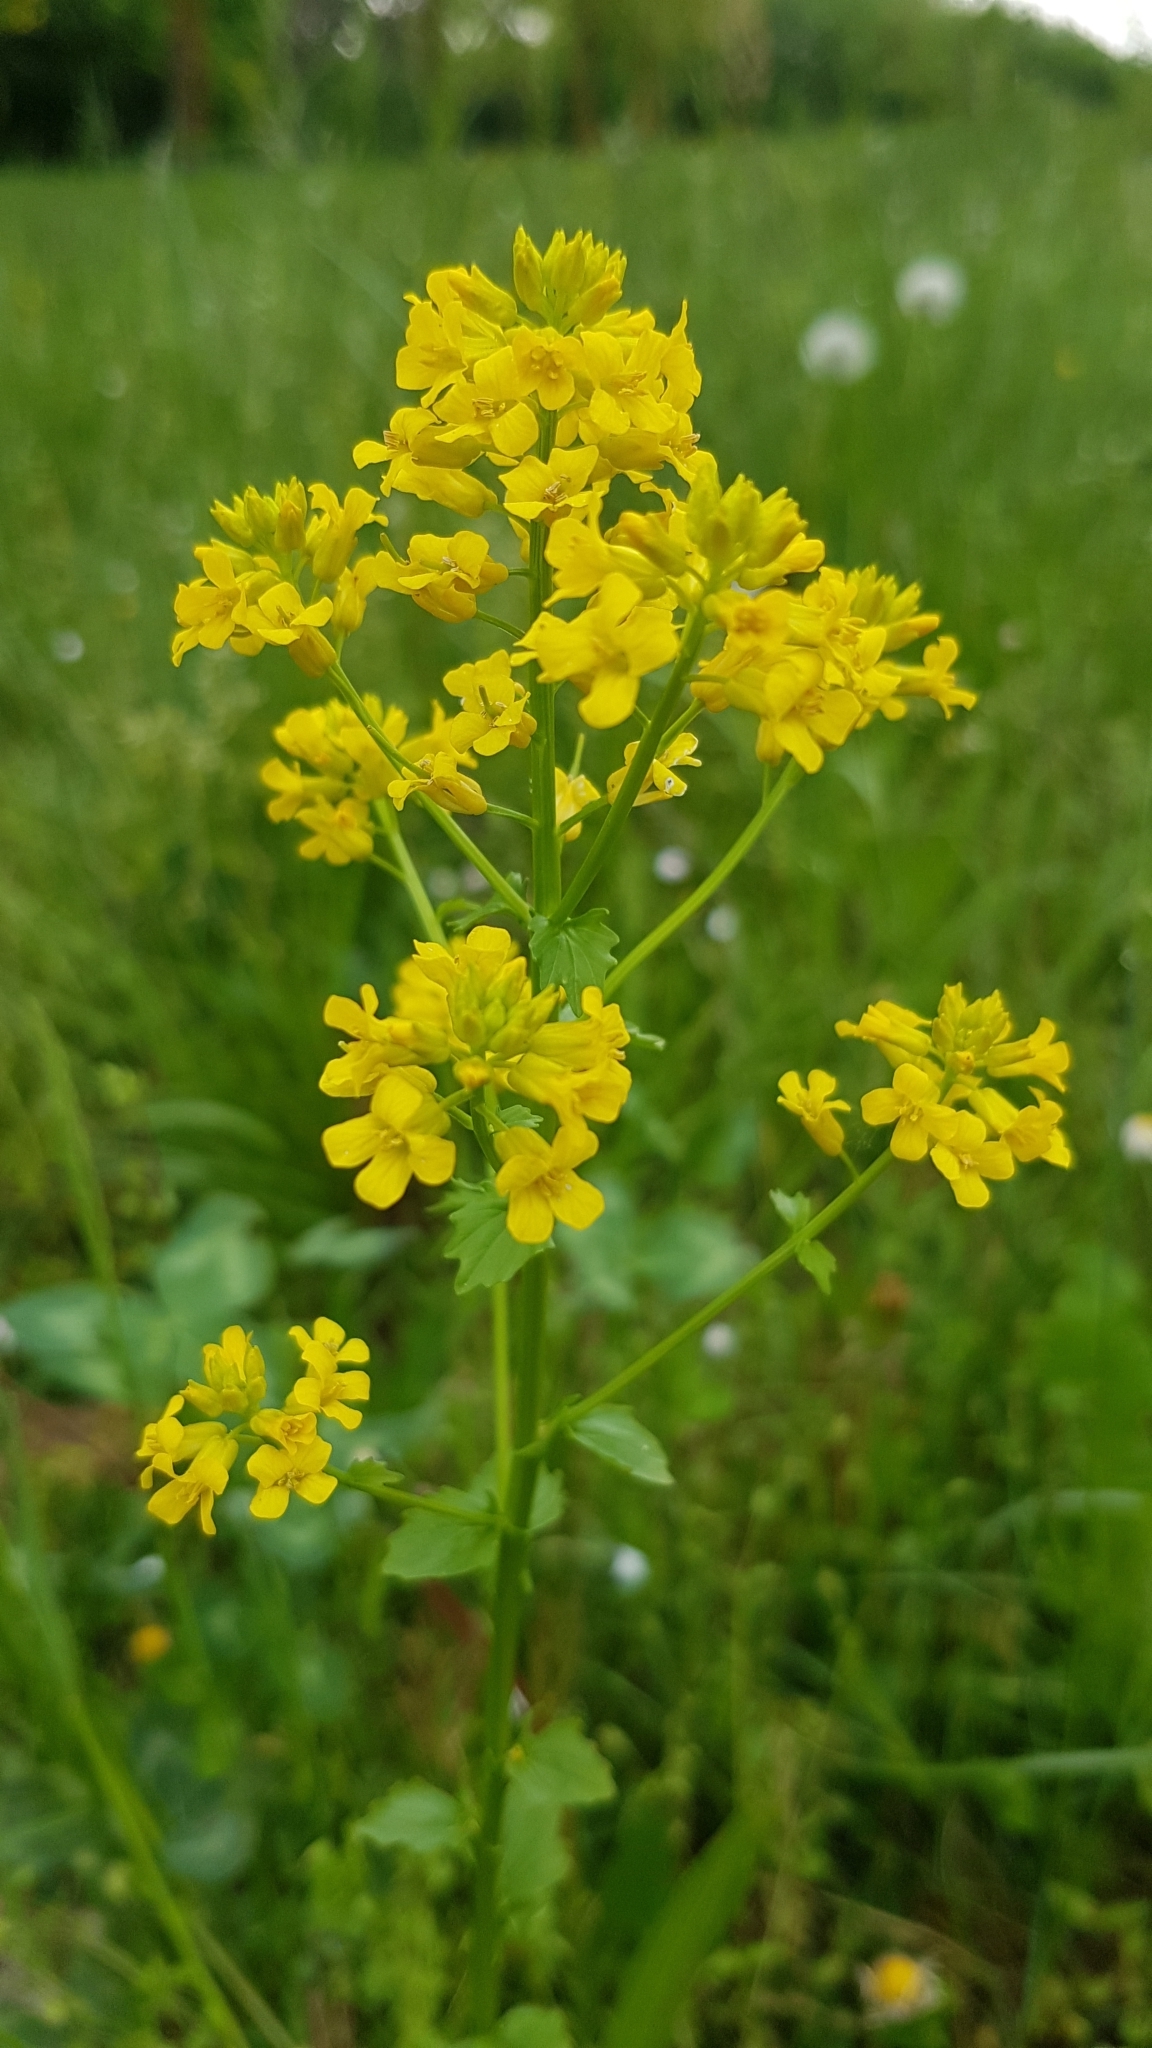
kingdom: Plantae
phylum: Tracheophyta
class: Magnoliopsida
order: Brassicales
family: Brassicaceae
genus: Barbarea
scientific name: Barbarea vulgaris
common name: Cressy-greens
